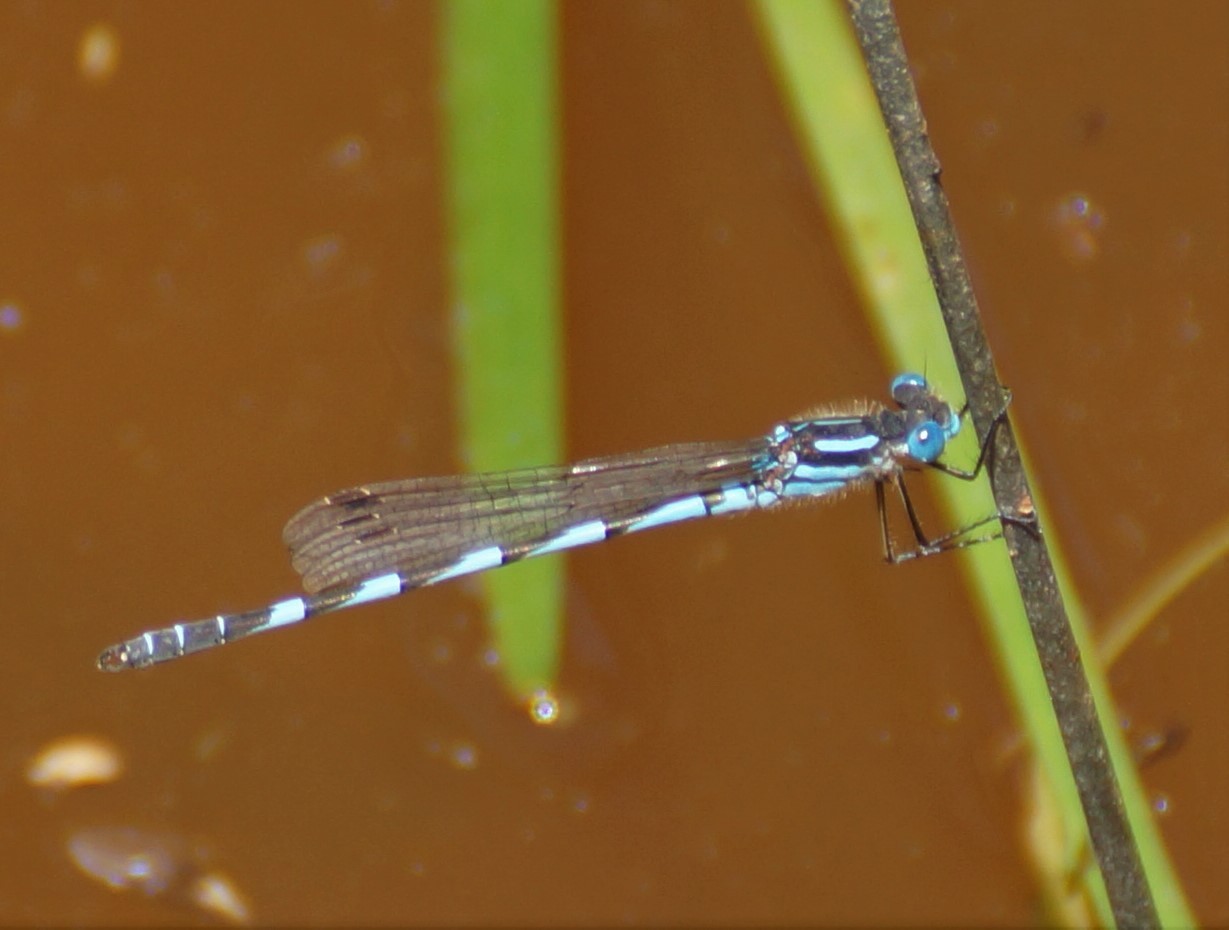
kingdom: Animalia
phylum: Arthropoda
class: Insecta
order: Odonata
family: Lestidae
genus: Austrolestes
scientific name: Austrolestes annulosus
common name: Blue ringtail
